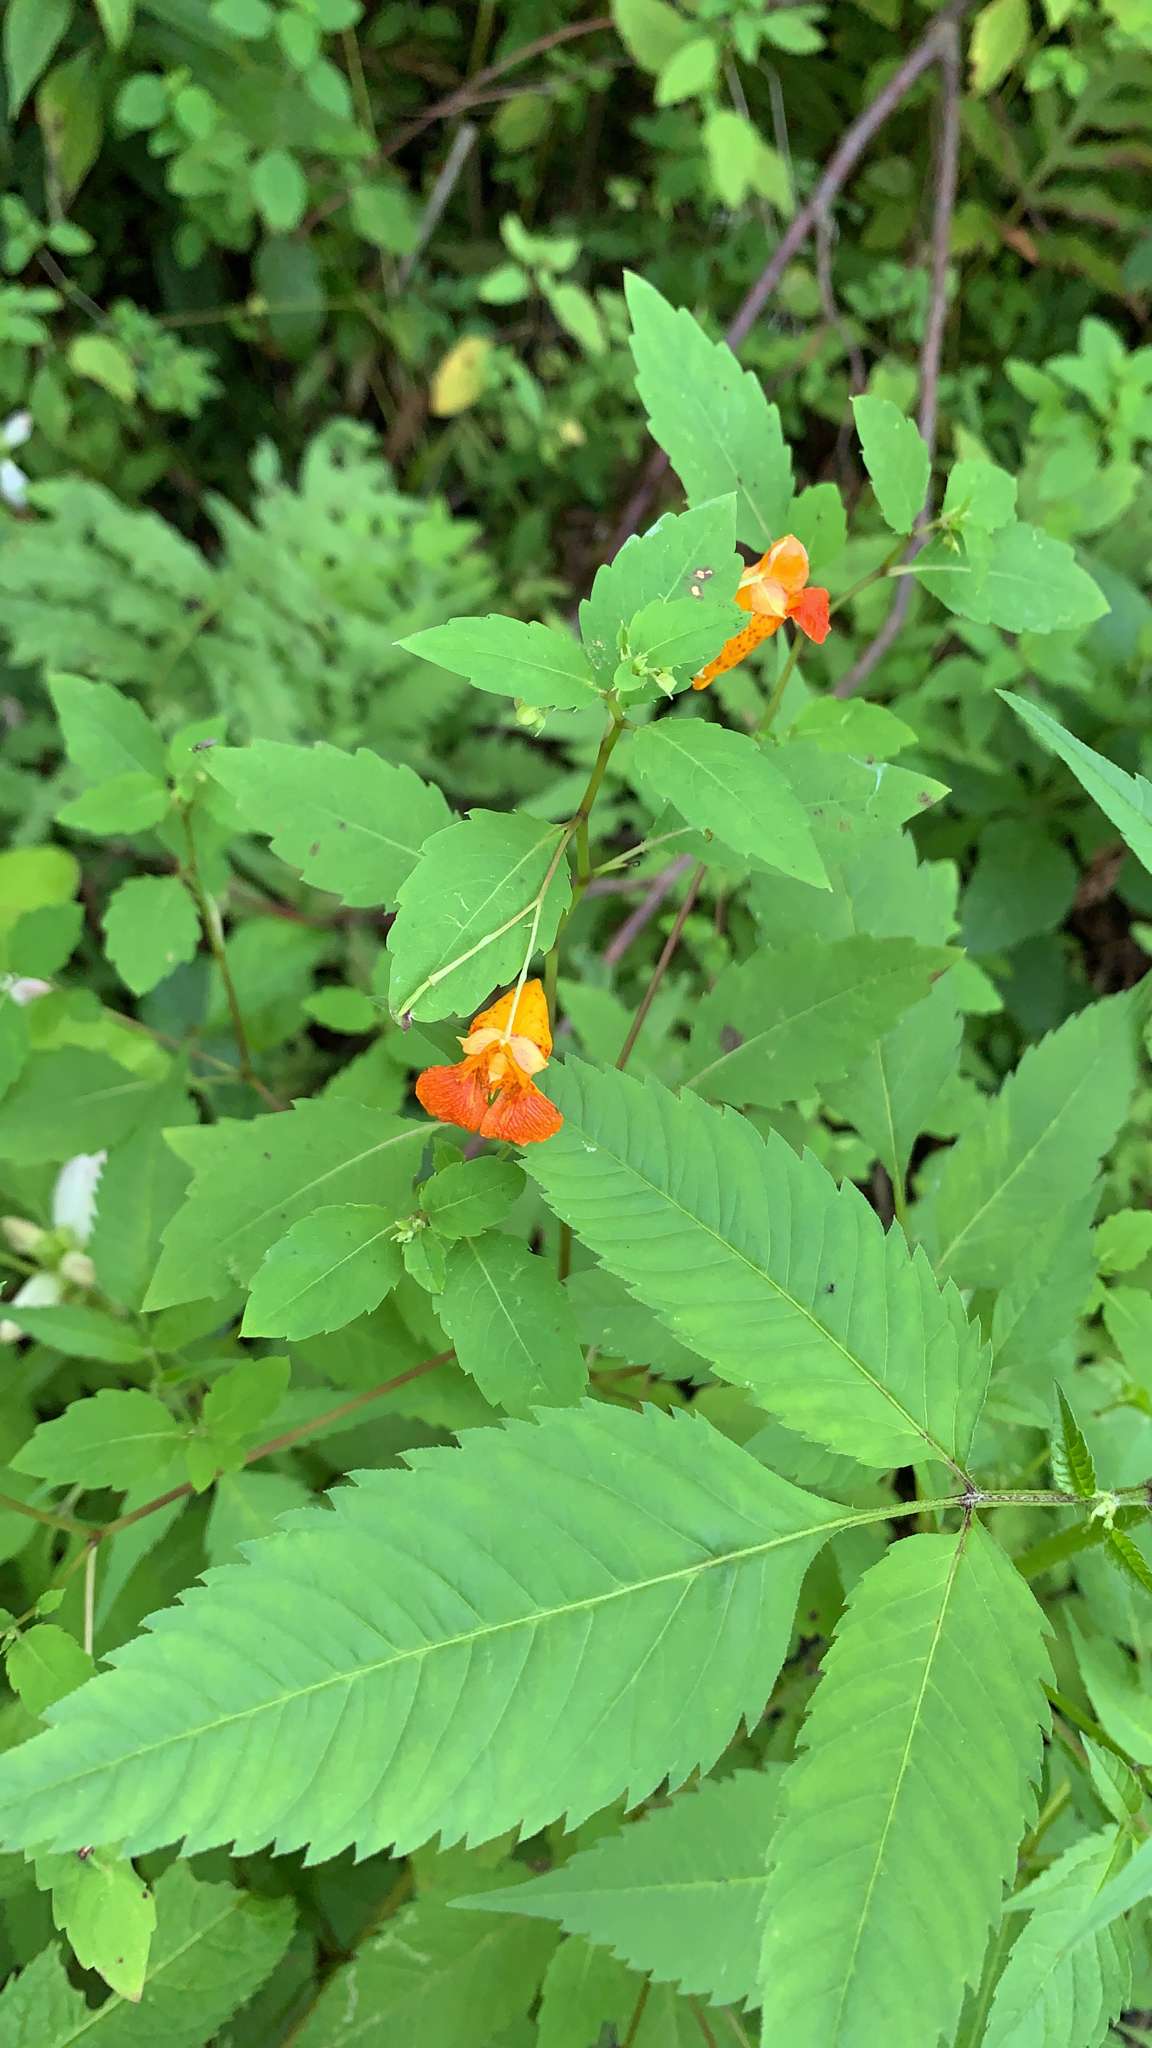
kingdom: Plantae
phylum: Tracheophyta
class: Magnoliopsida
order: Ericales
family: Balsaminaceae
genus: Impatiens
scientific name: Impatiens capensis
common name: Orange balsam
